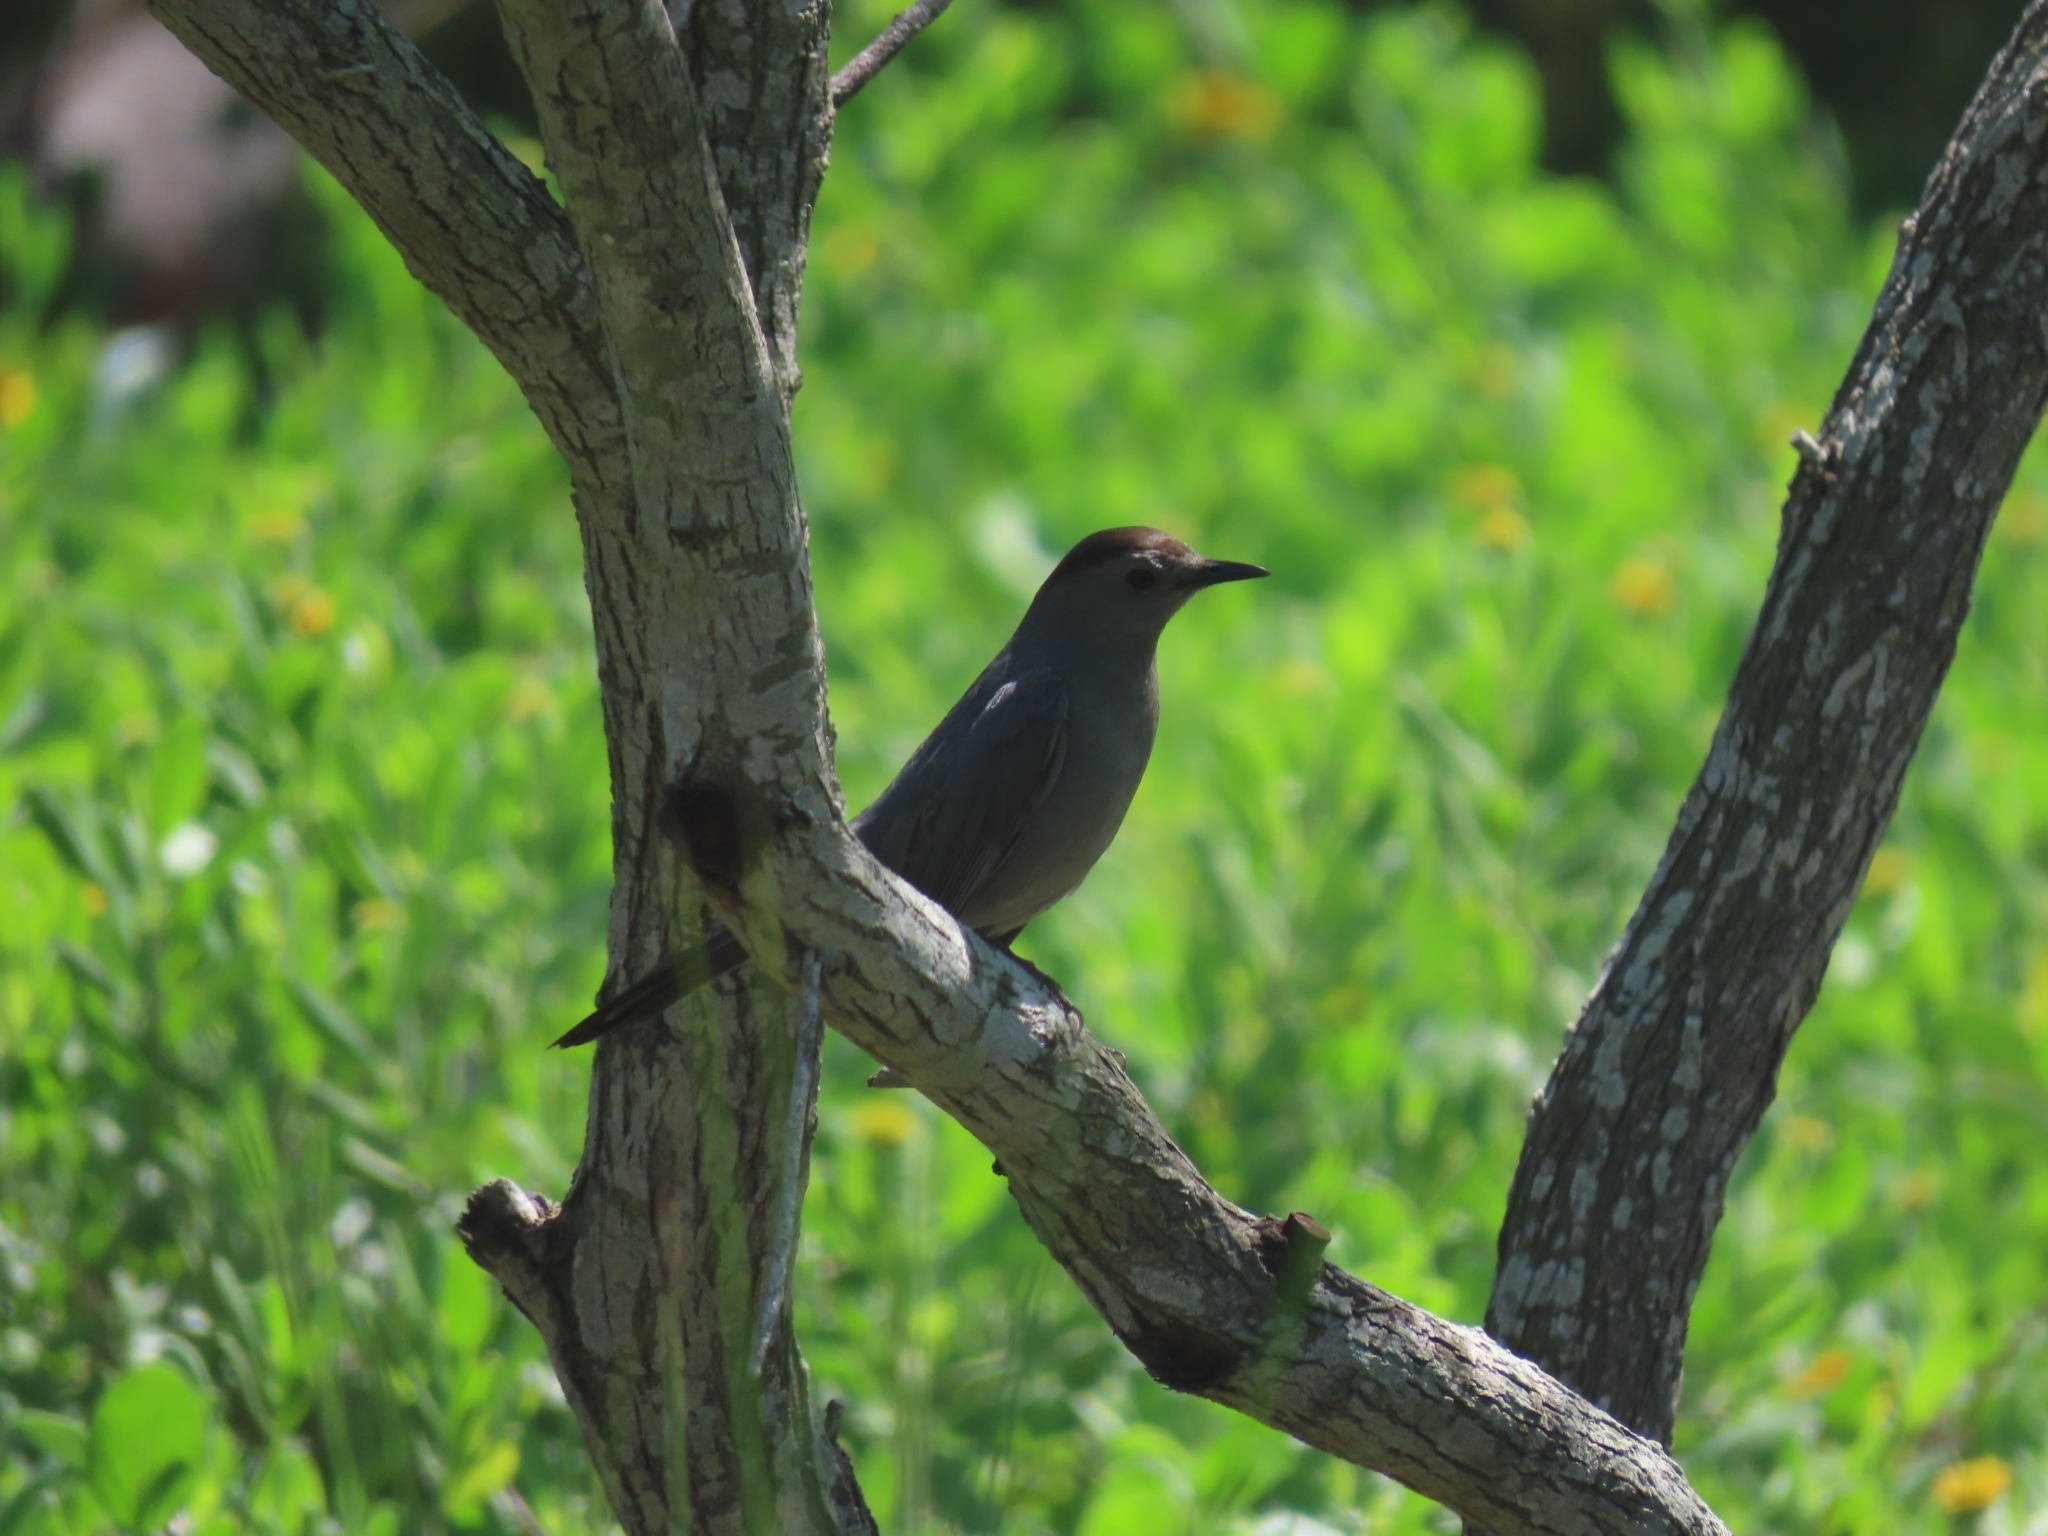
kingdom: Animalia
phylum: Chordata
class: Aves
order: Passeriformes
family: Mimidae
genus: Dumetella
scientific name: Dumetella carolinensis
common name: Gray catbird
